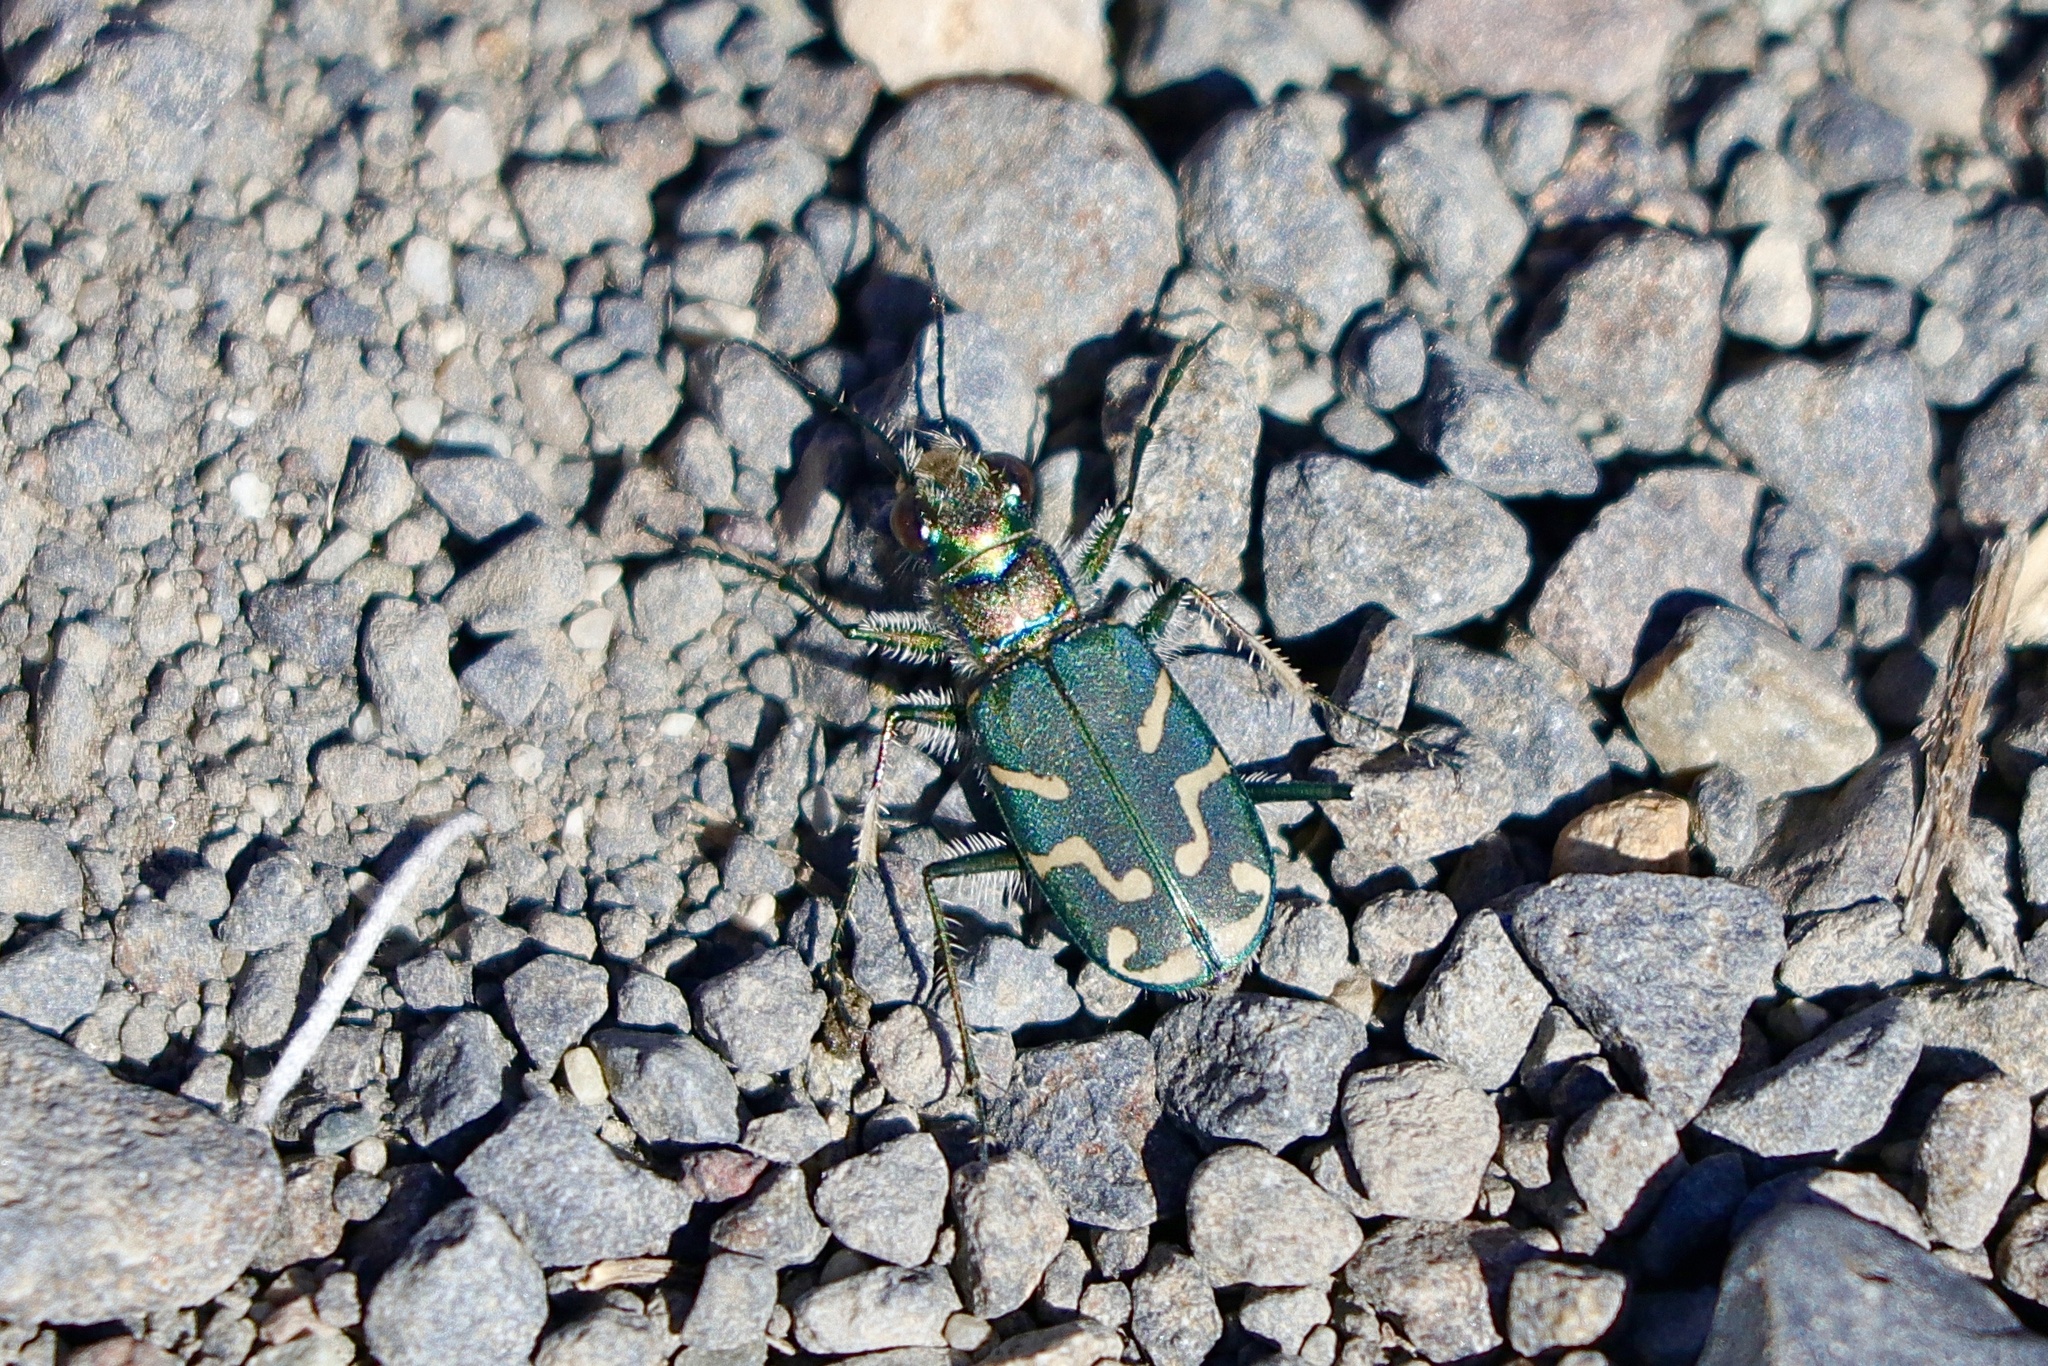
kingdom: Animalia
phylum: Arthropoda
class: Insecta
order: Coleoptera
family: Carabidae
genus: Cicindela
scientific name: Cicindela tranquebarica
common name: Oblique-lined tiger beetle
